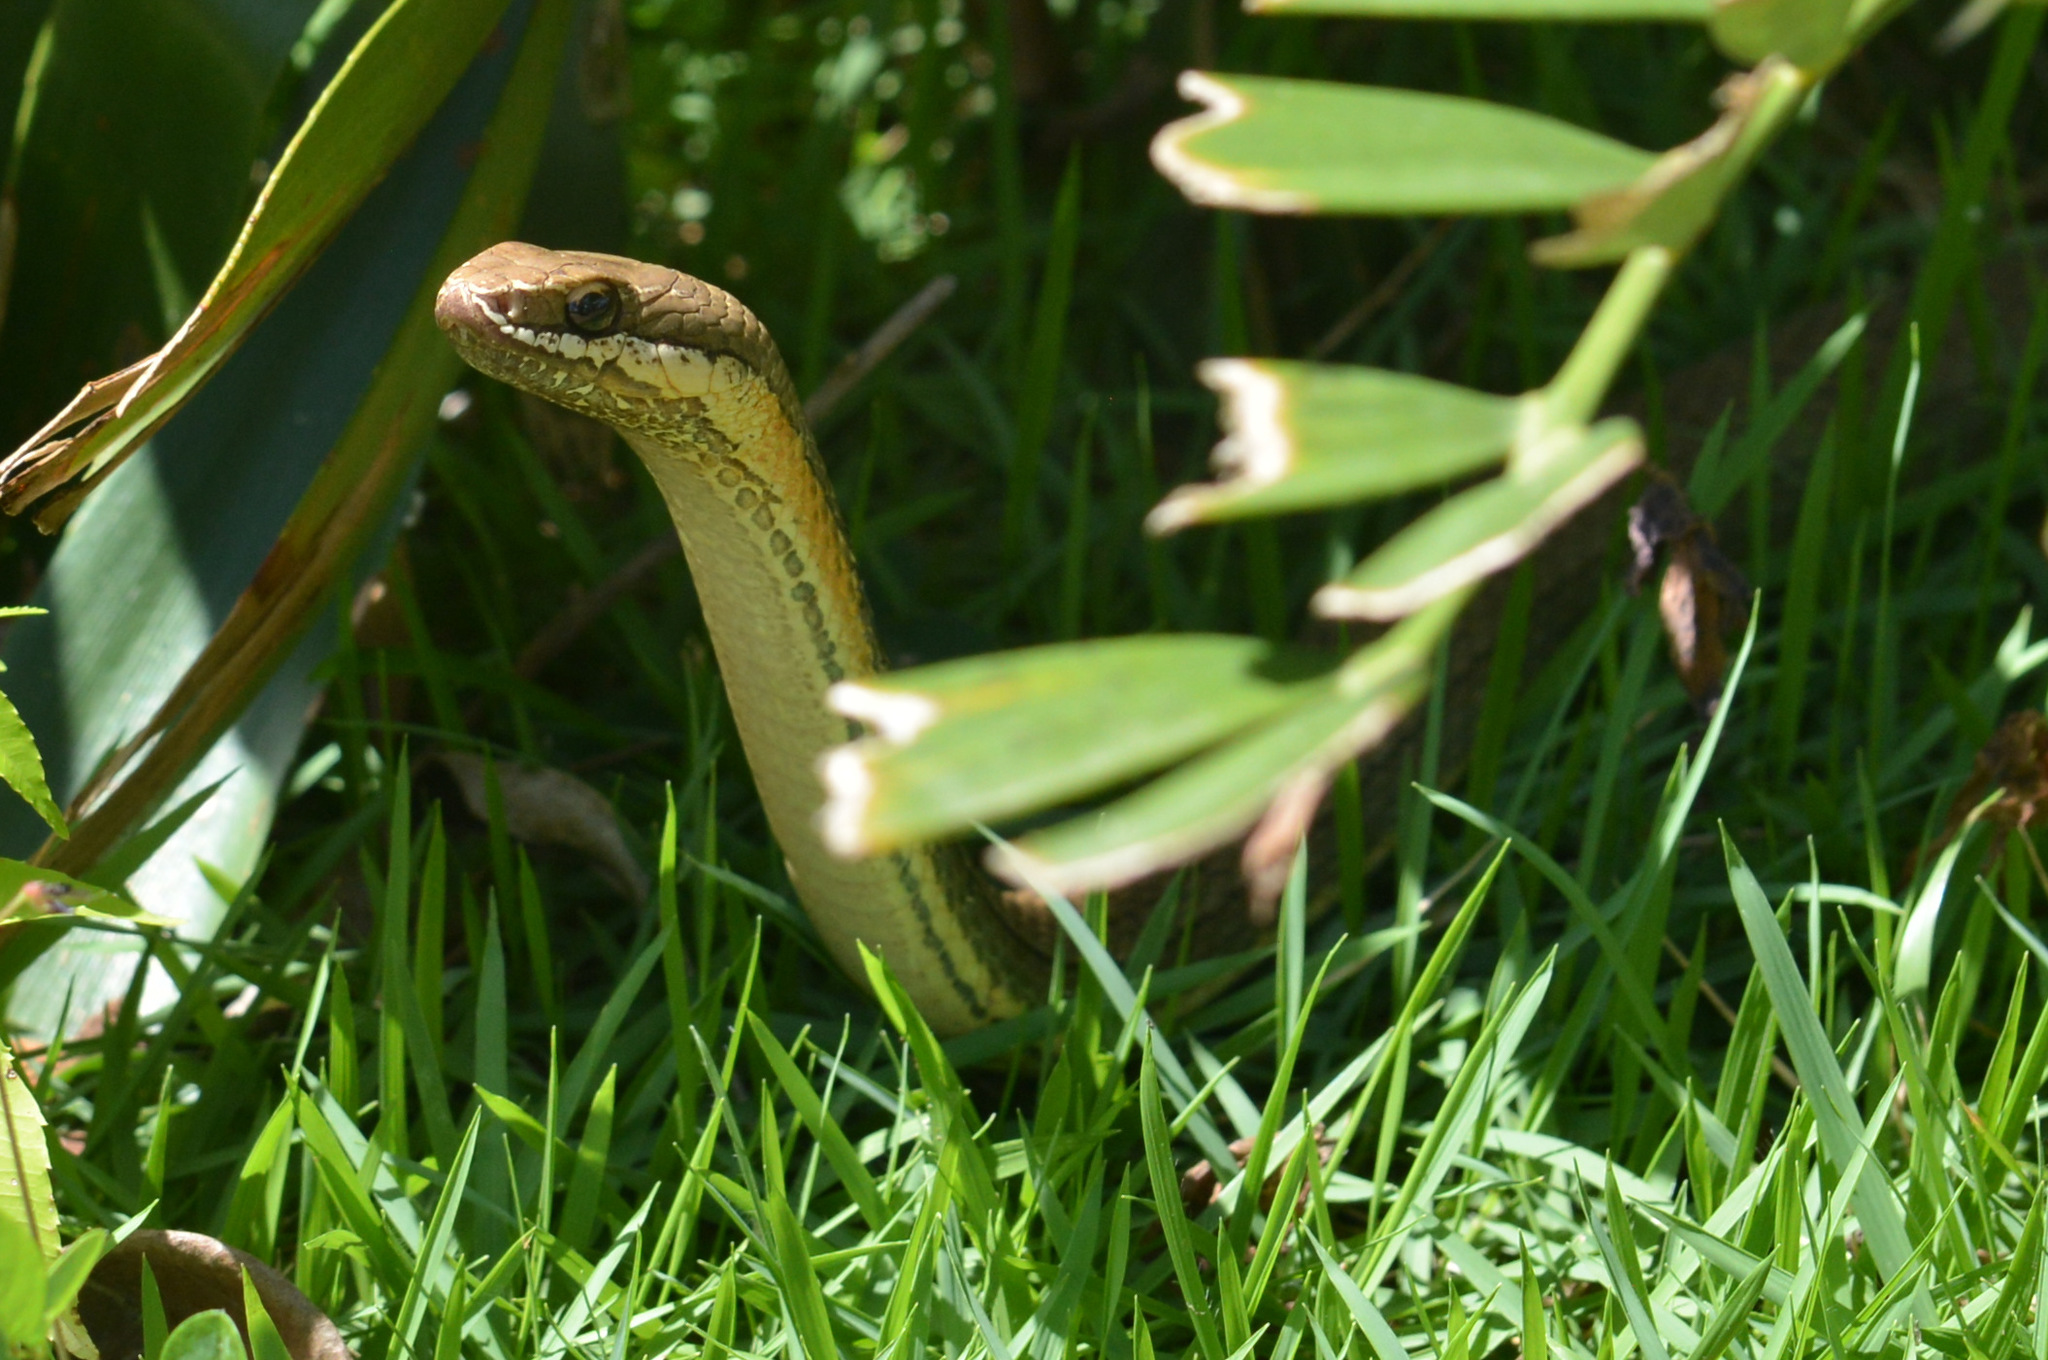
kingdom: Animalia
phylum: Chordata
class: Squamata
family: Colubridae
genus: Philodryas
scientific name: Philodryas nattereri
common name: Paraguay green racer
